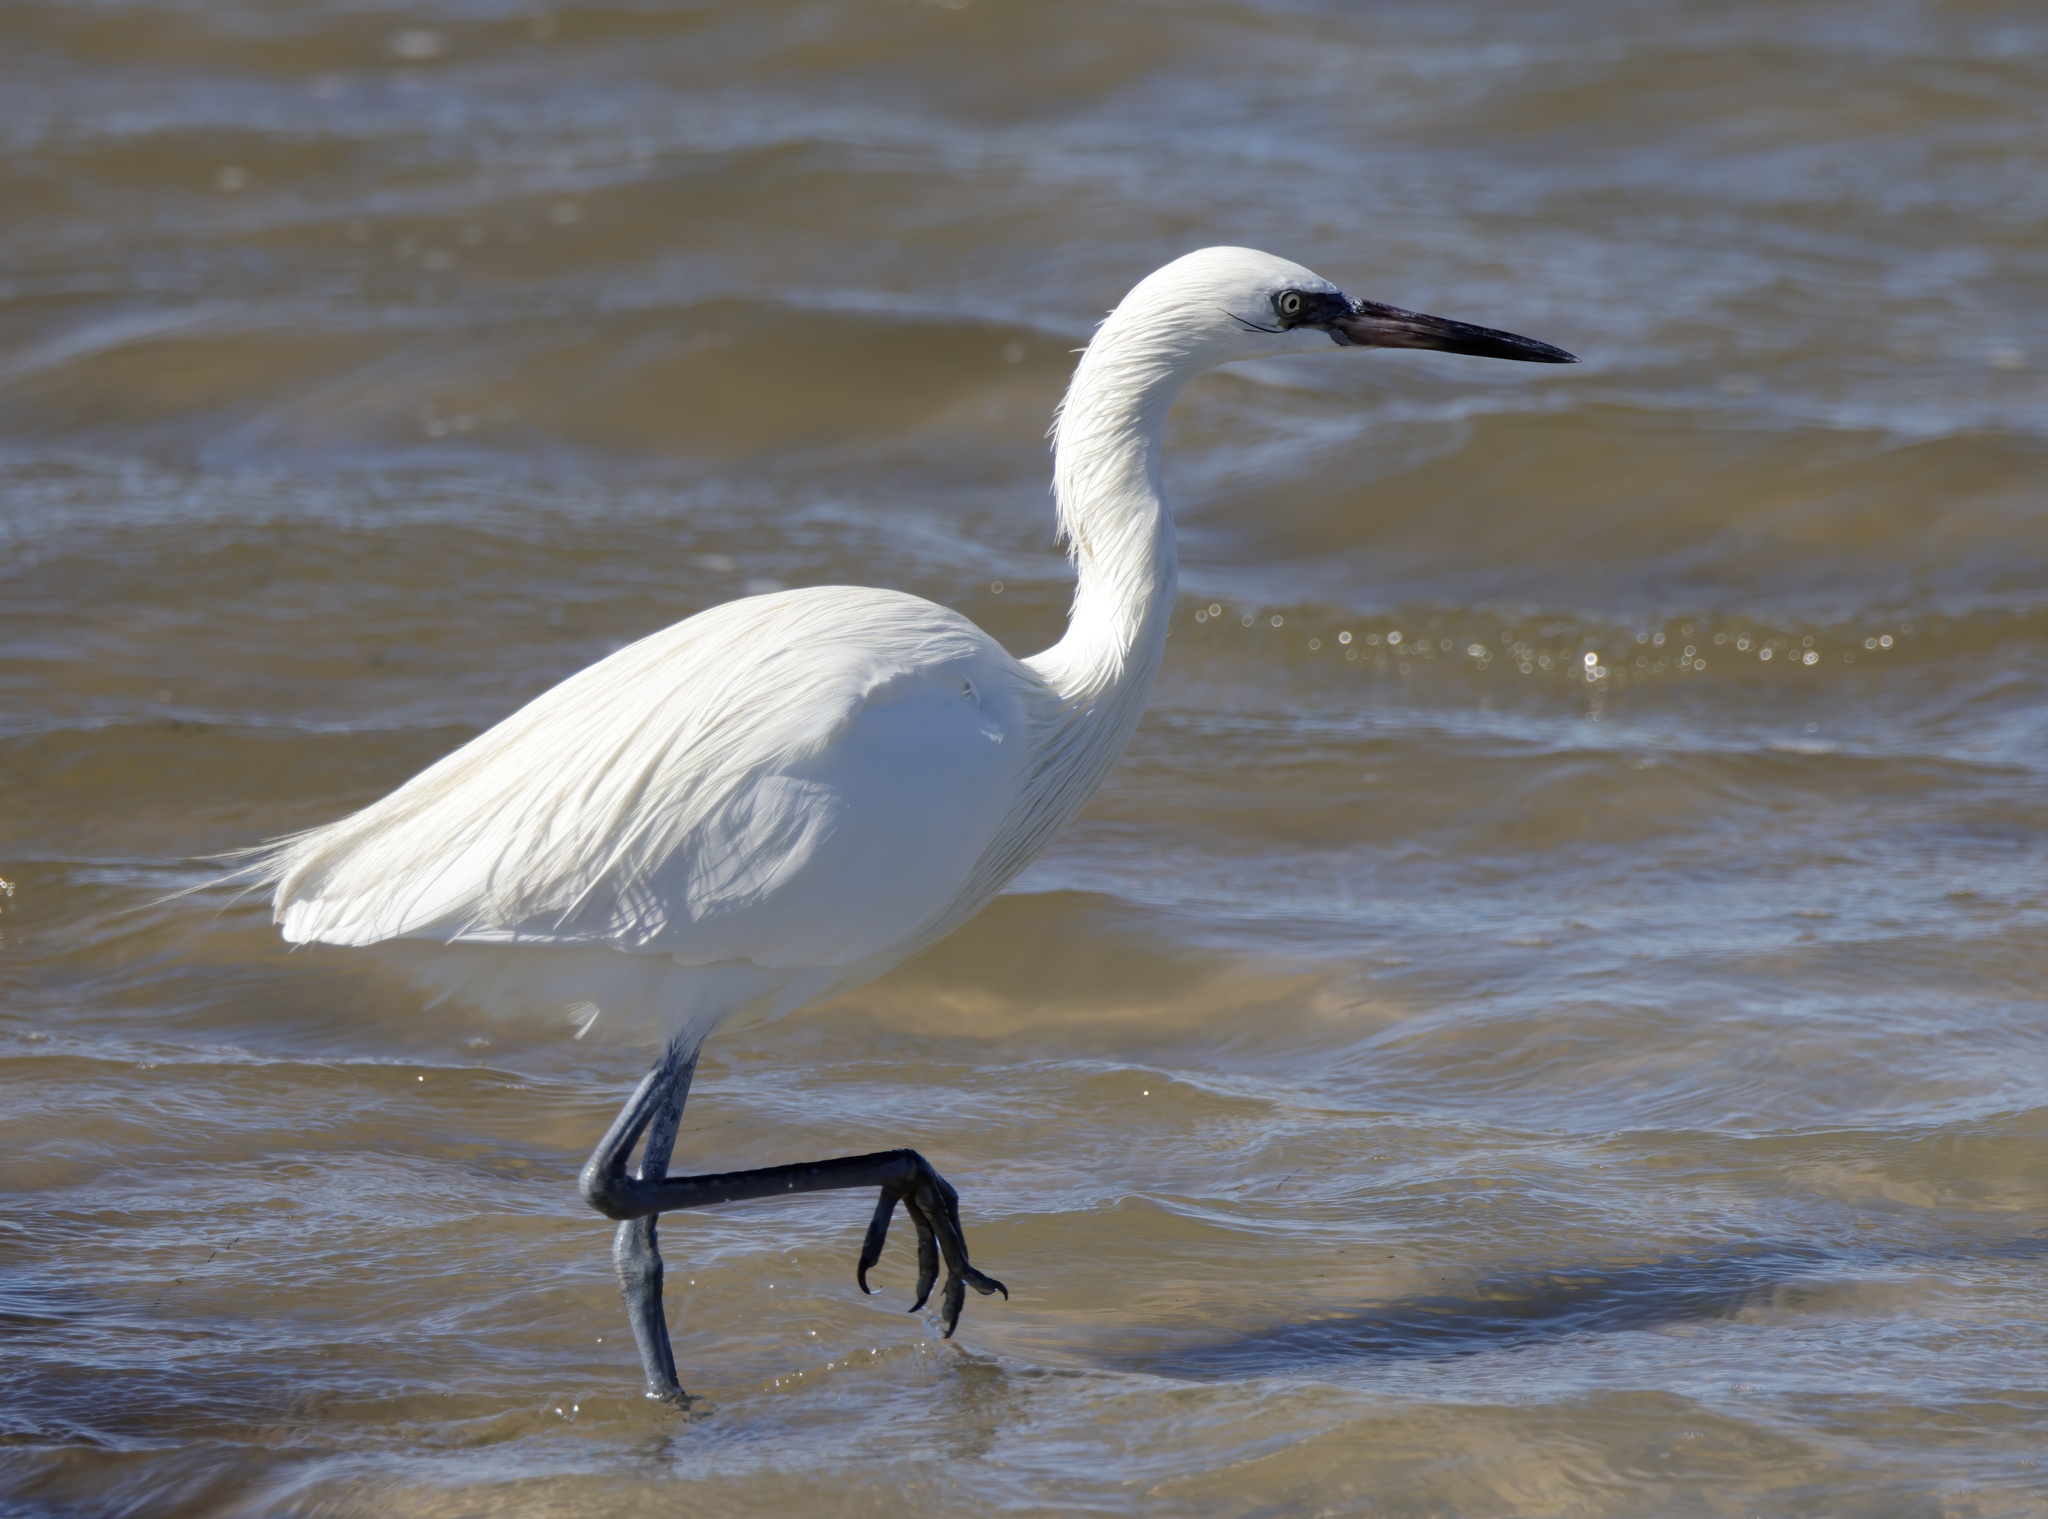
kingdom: Animalia
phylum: Chordata
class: Aves
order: Pelecaniformes
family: Ardeidae
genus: Egretta
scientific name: Egretta rufescens
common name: Reddish egret
